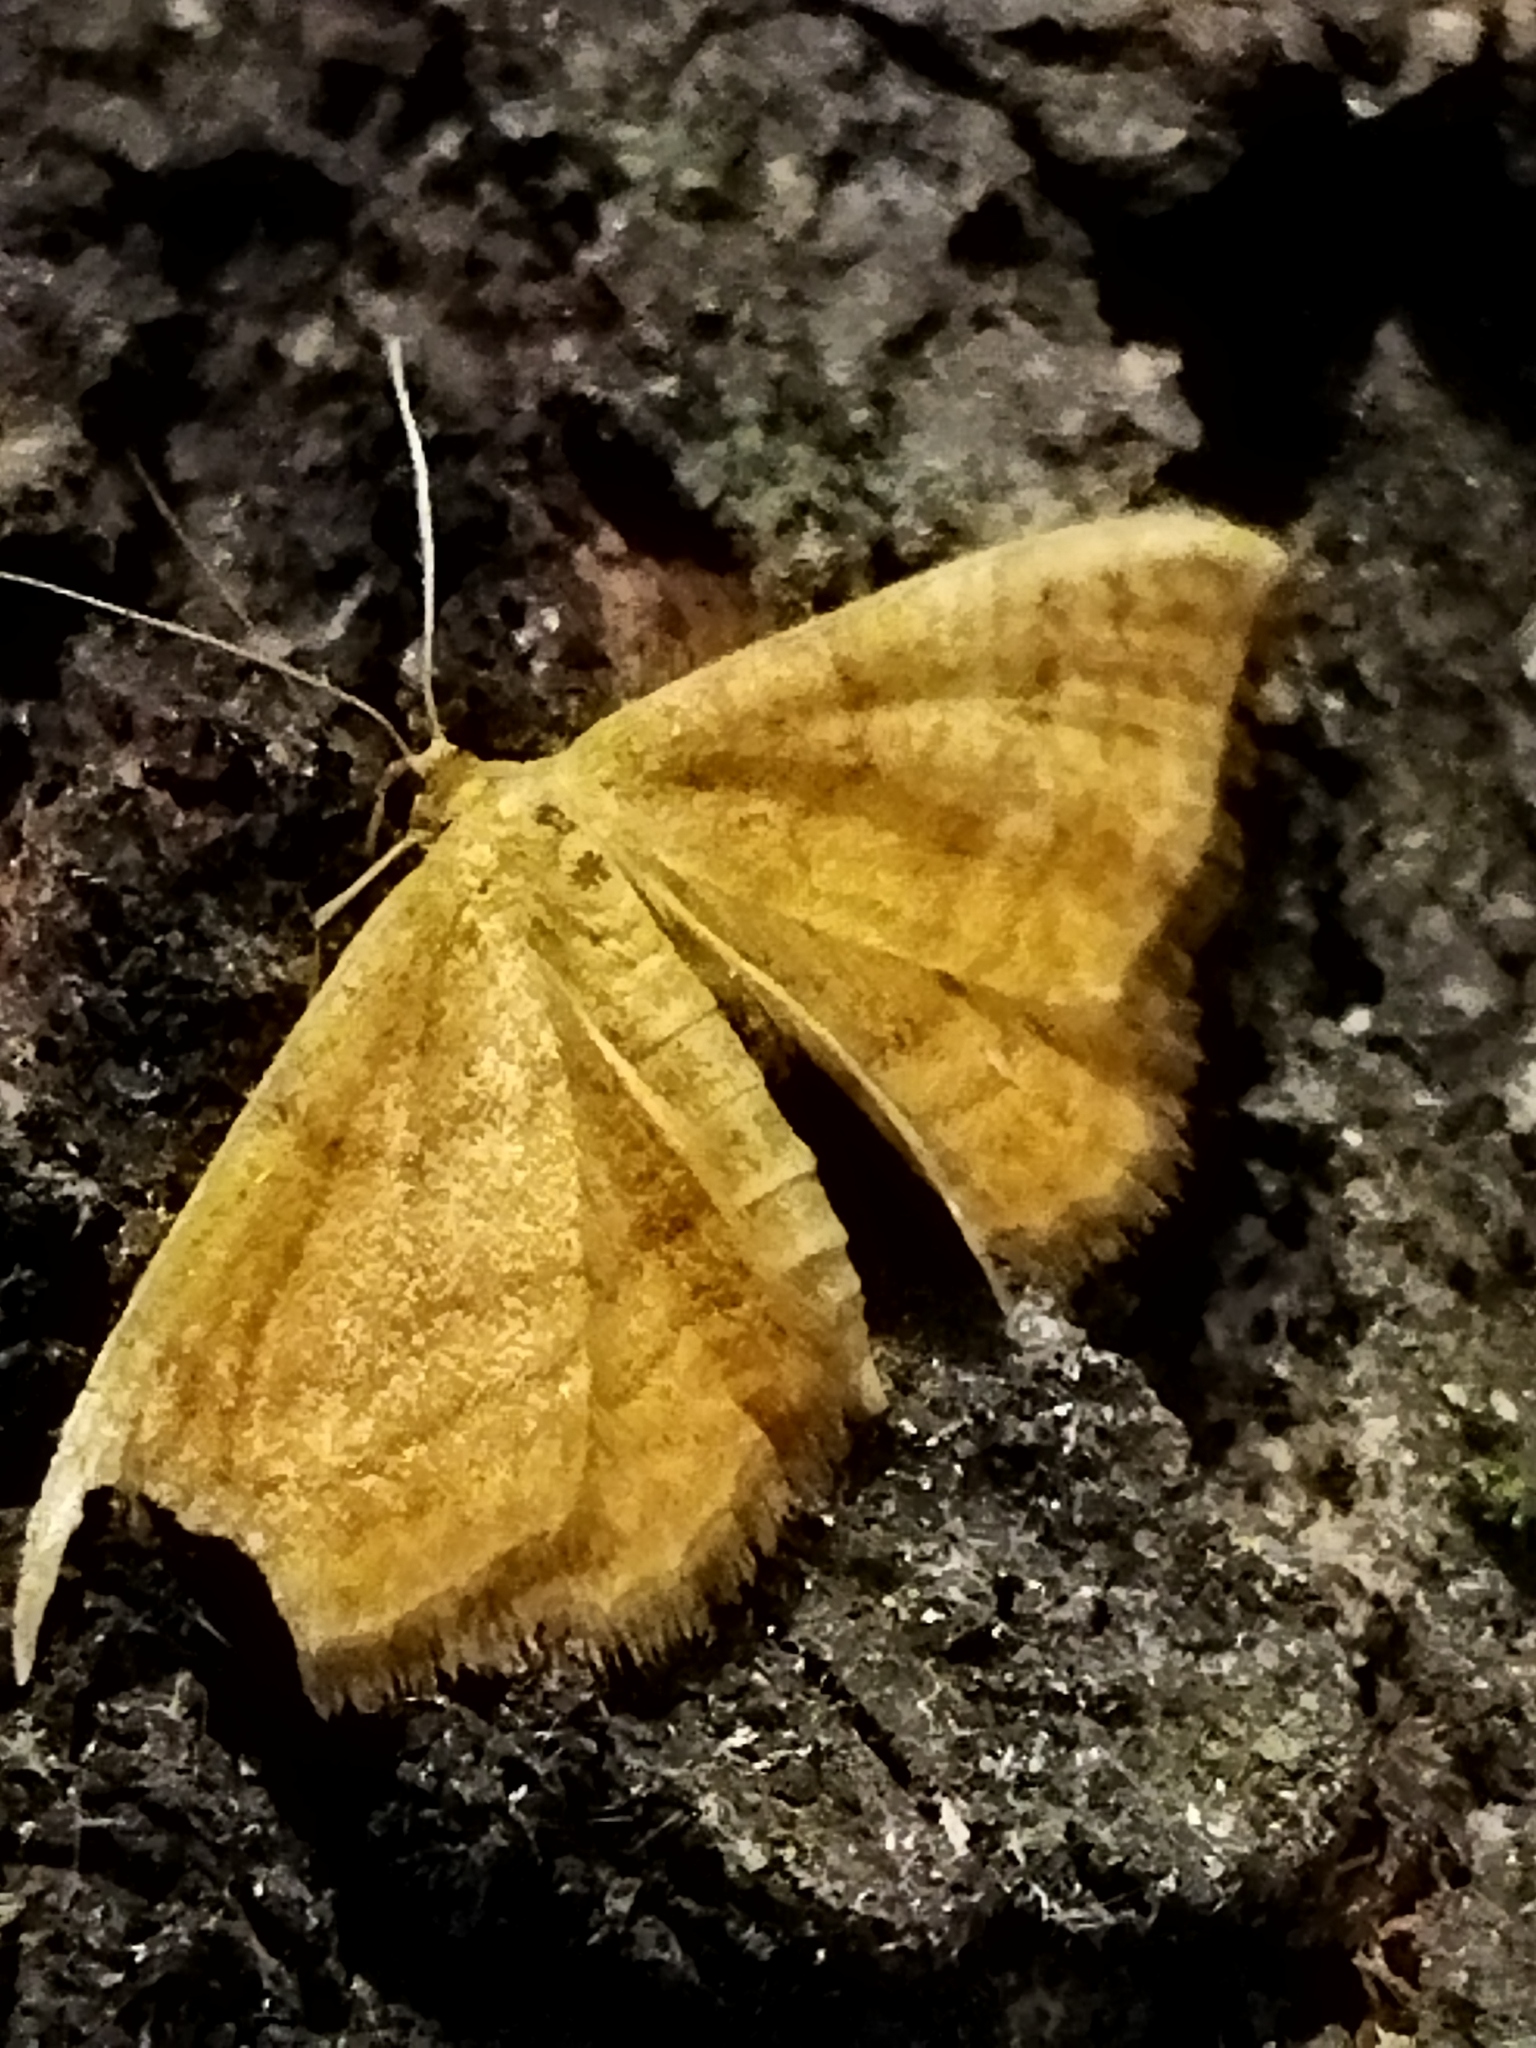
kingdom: Animalia
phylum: Arthropoda
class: Insecta
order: Lepidoptera
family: Geometridae
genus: Idaea
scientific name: Idaea ochrata
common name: Bright wave
